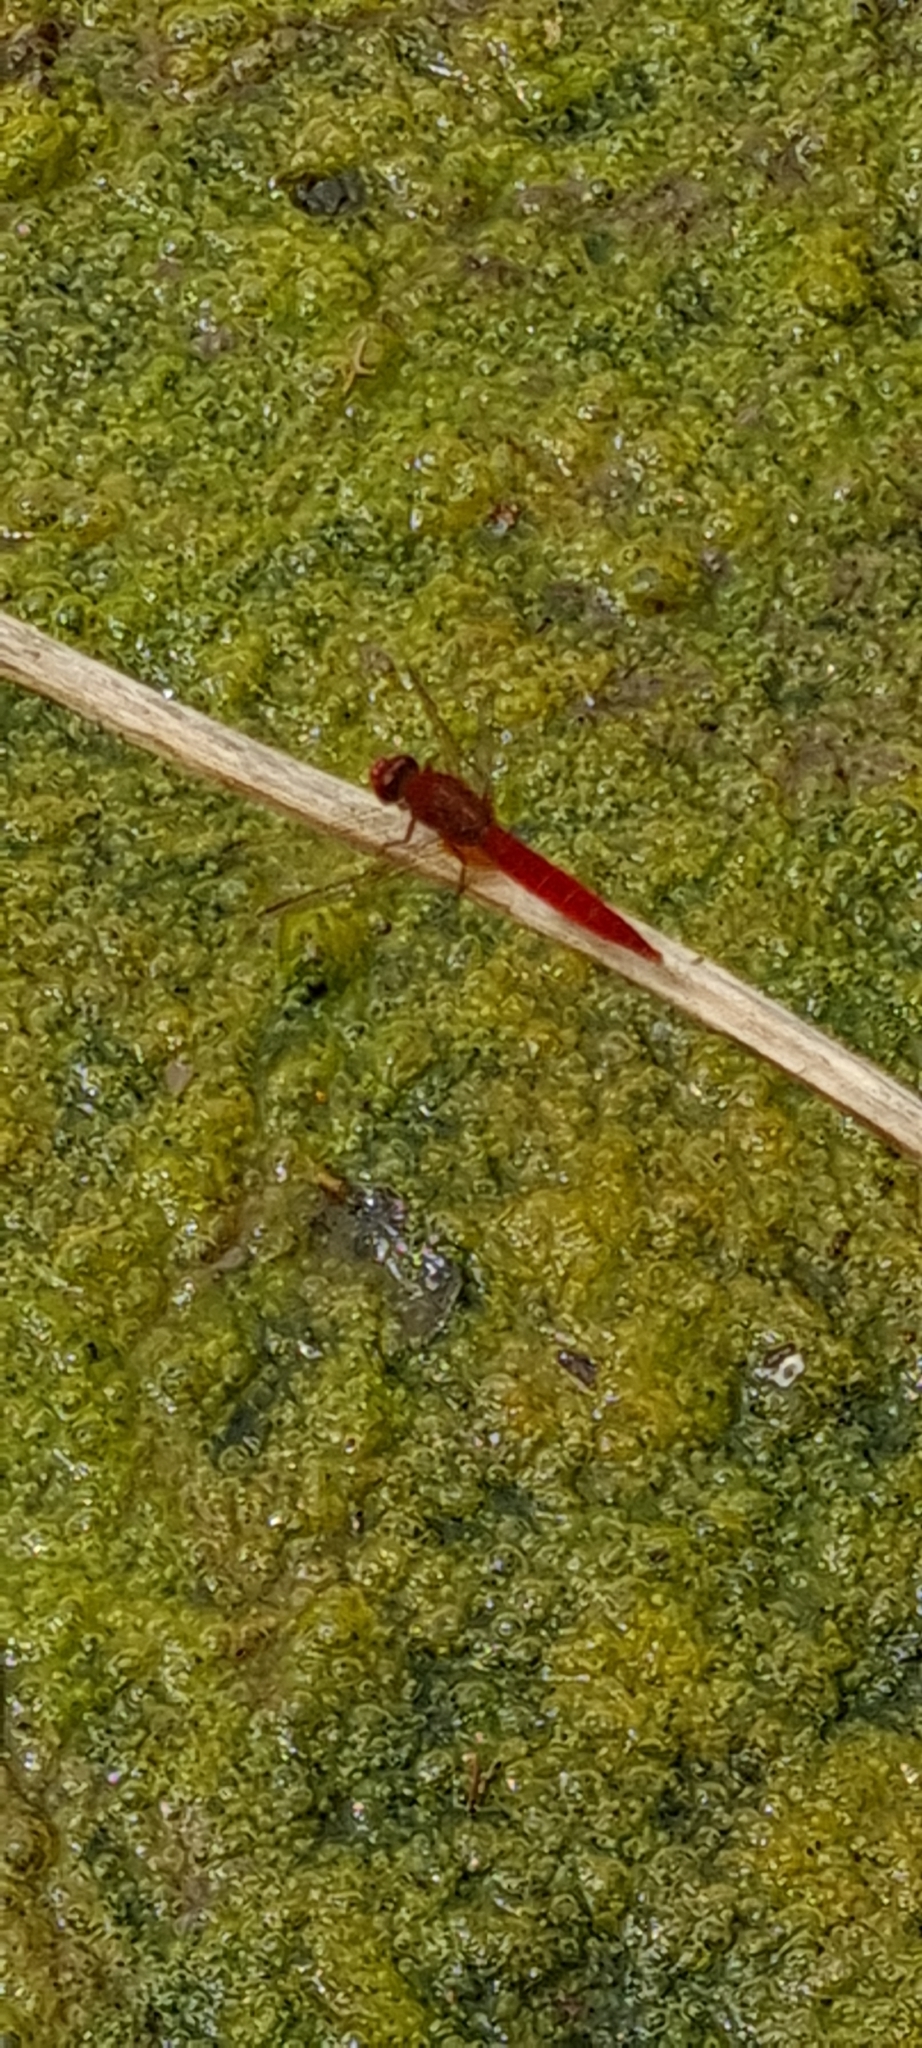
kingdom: Animalia
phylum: Arthropoda
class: Insecta
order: Odonata
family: Libellulidae
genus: Crocothemis
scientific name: Crocothemis erythraea
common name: Scarlet dragonfly
